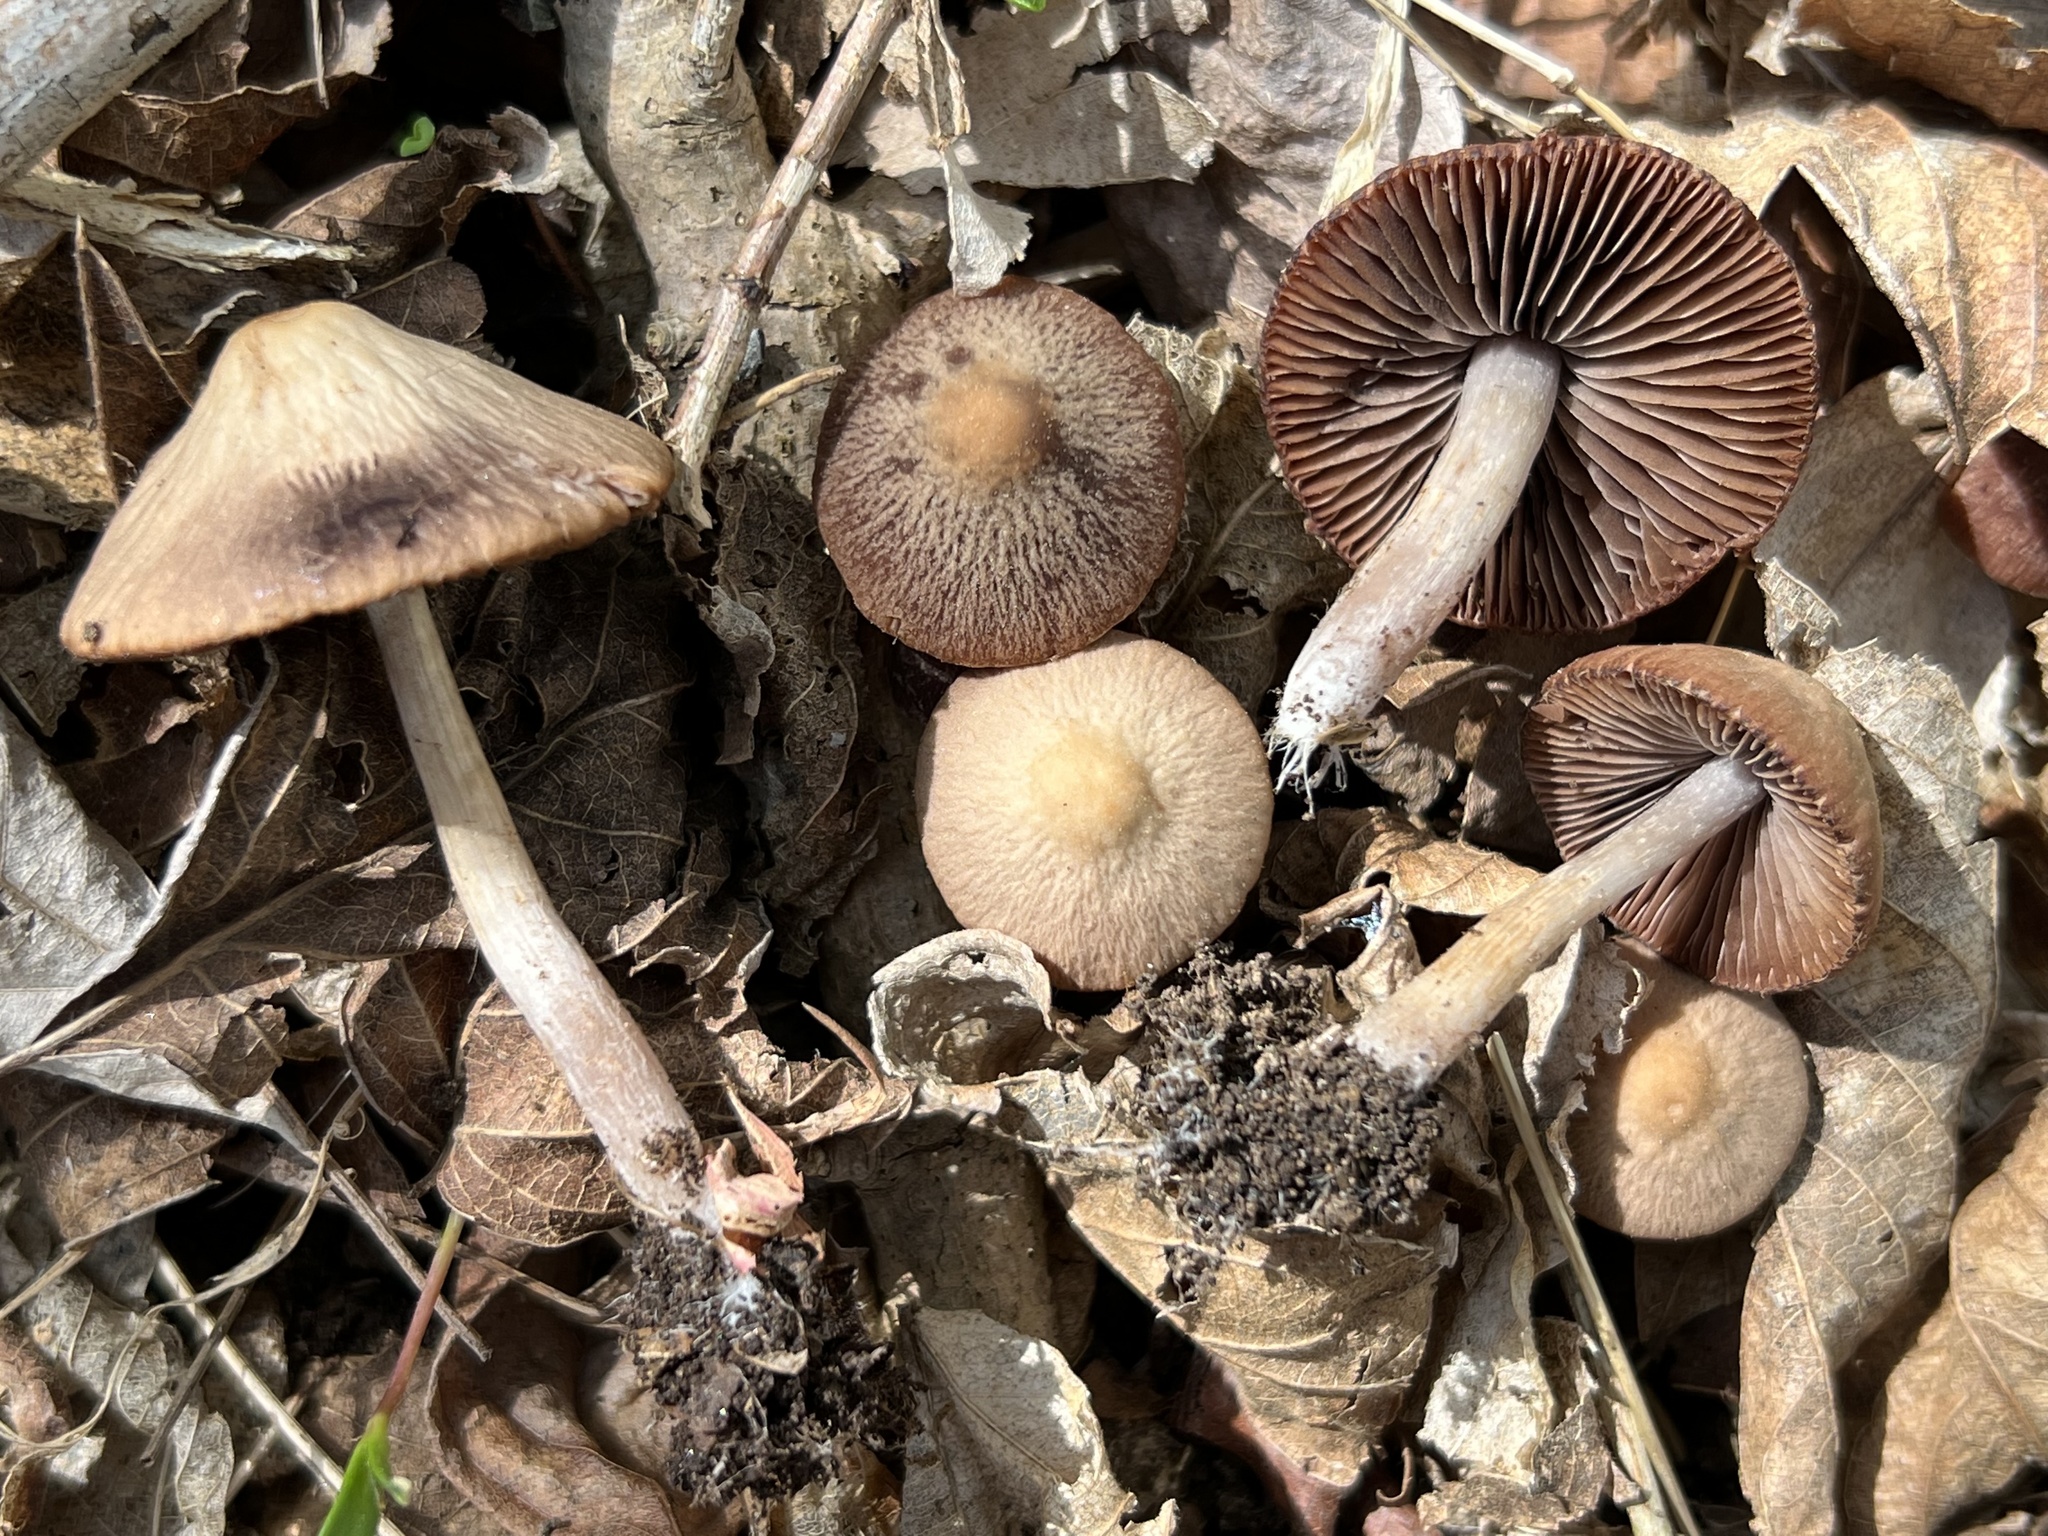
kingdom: Fungi
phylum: Basidiomycota
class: Agaricomycetes
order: Agaricales
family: Psathyrellaceae
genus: Psathyrella
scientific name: Psathyrella bipellis
